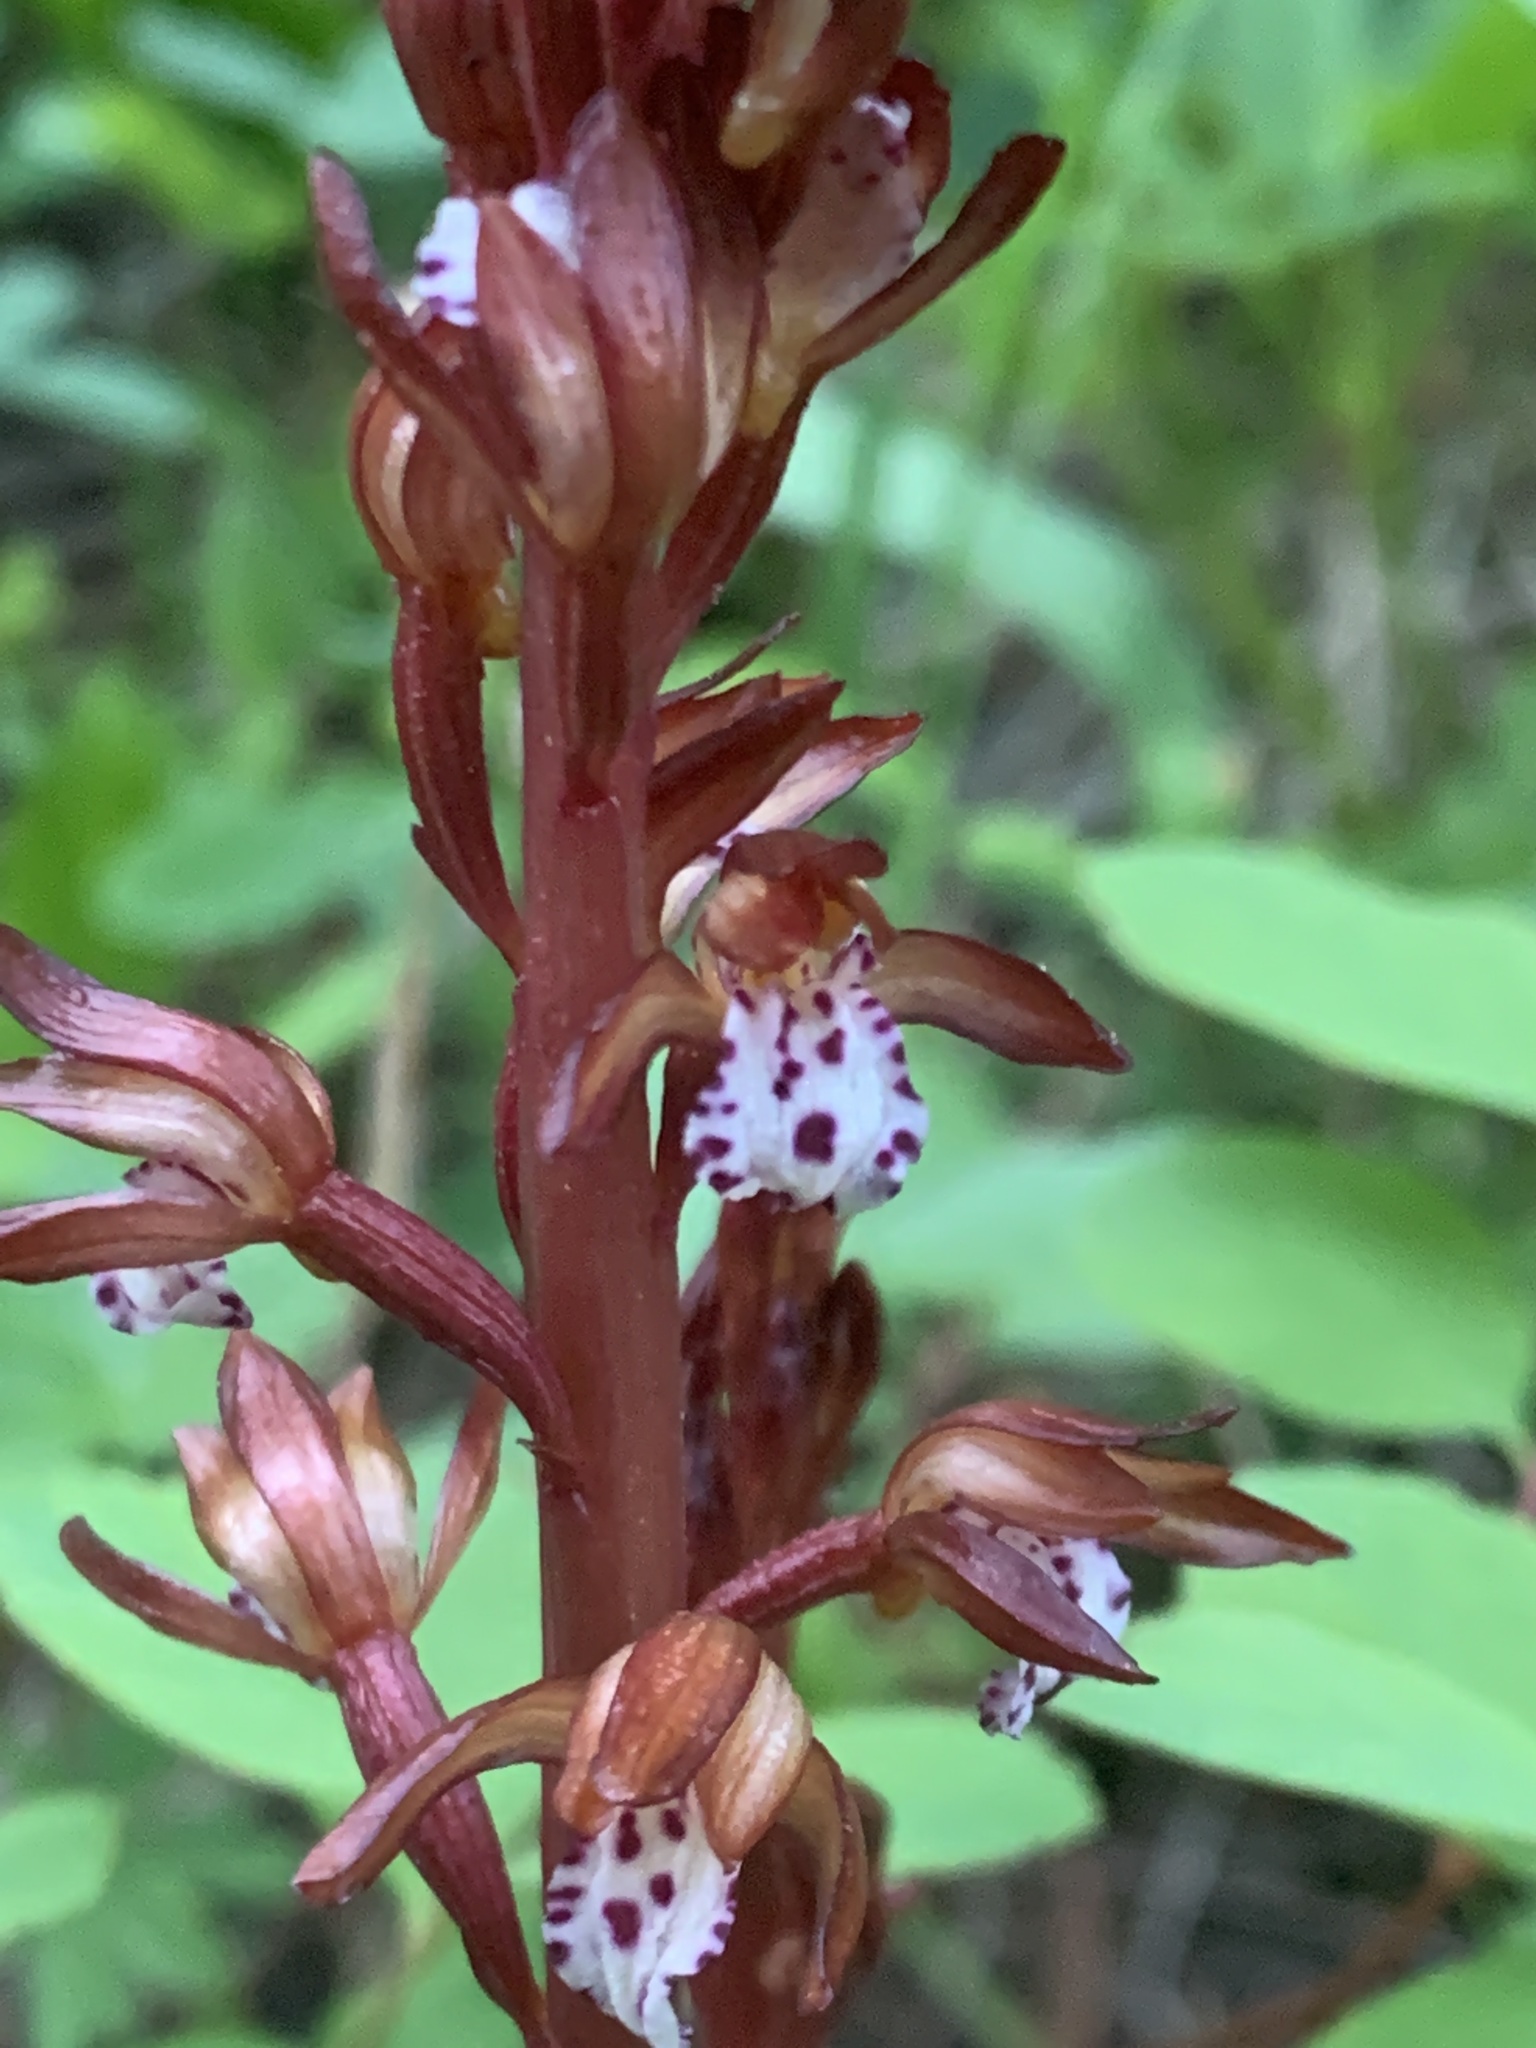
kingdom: Plantae
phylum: Tracheophyta
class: Liliopsida
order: Asparagales
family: Orchidaceae
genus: Corallorhiza
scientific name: Corallorhiza maculata
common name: Spotted coralroot
